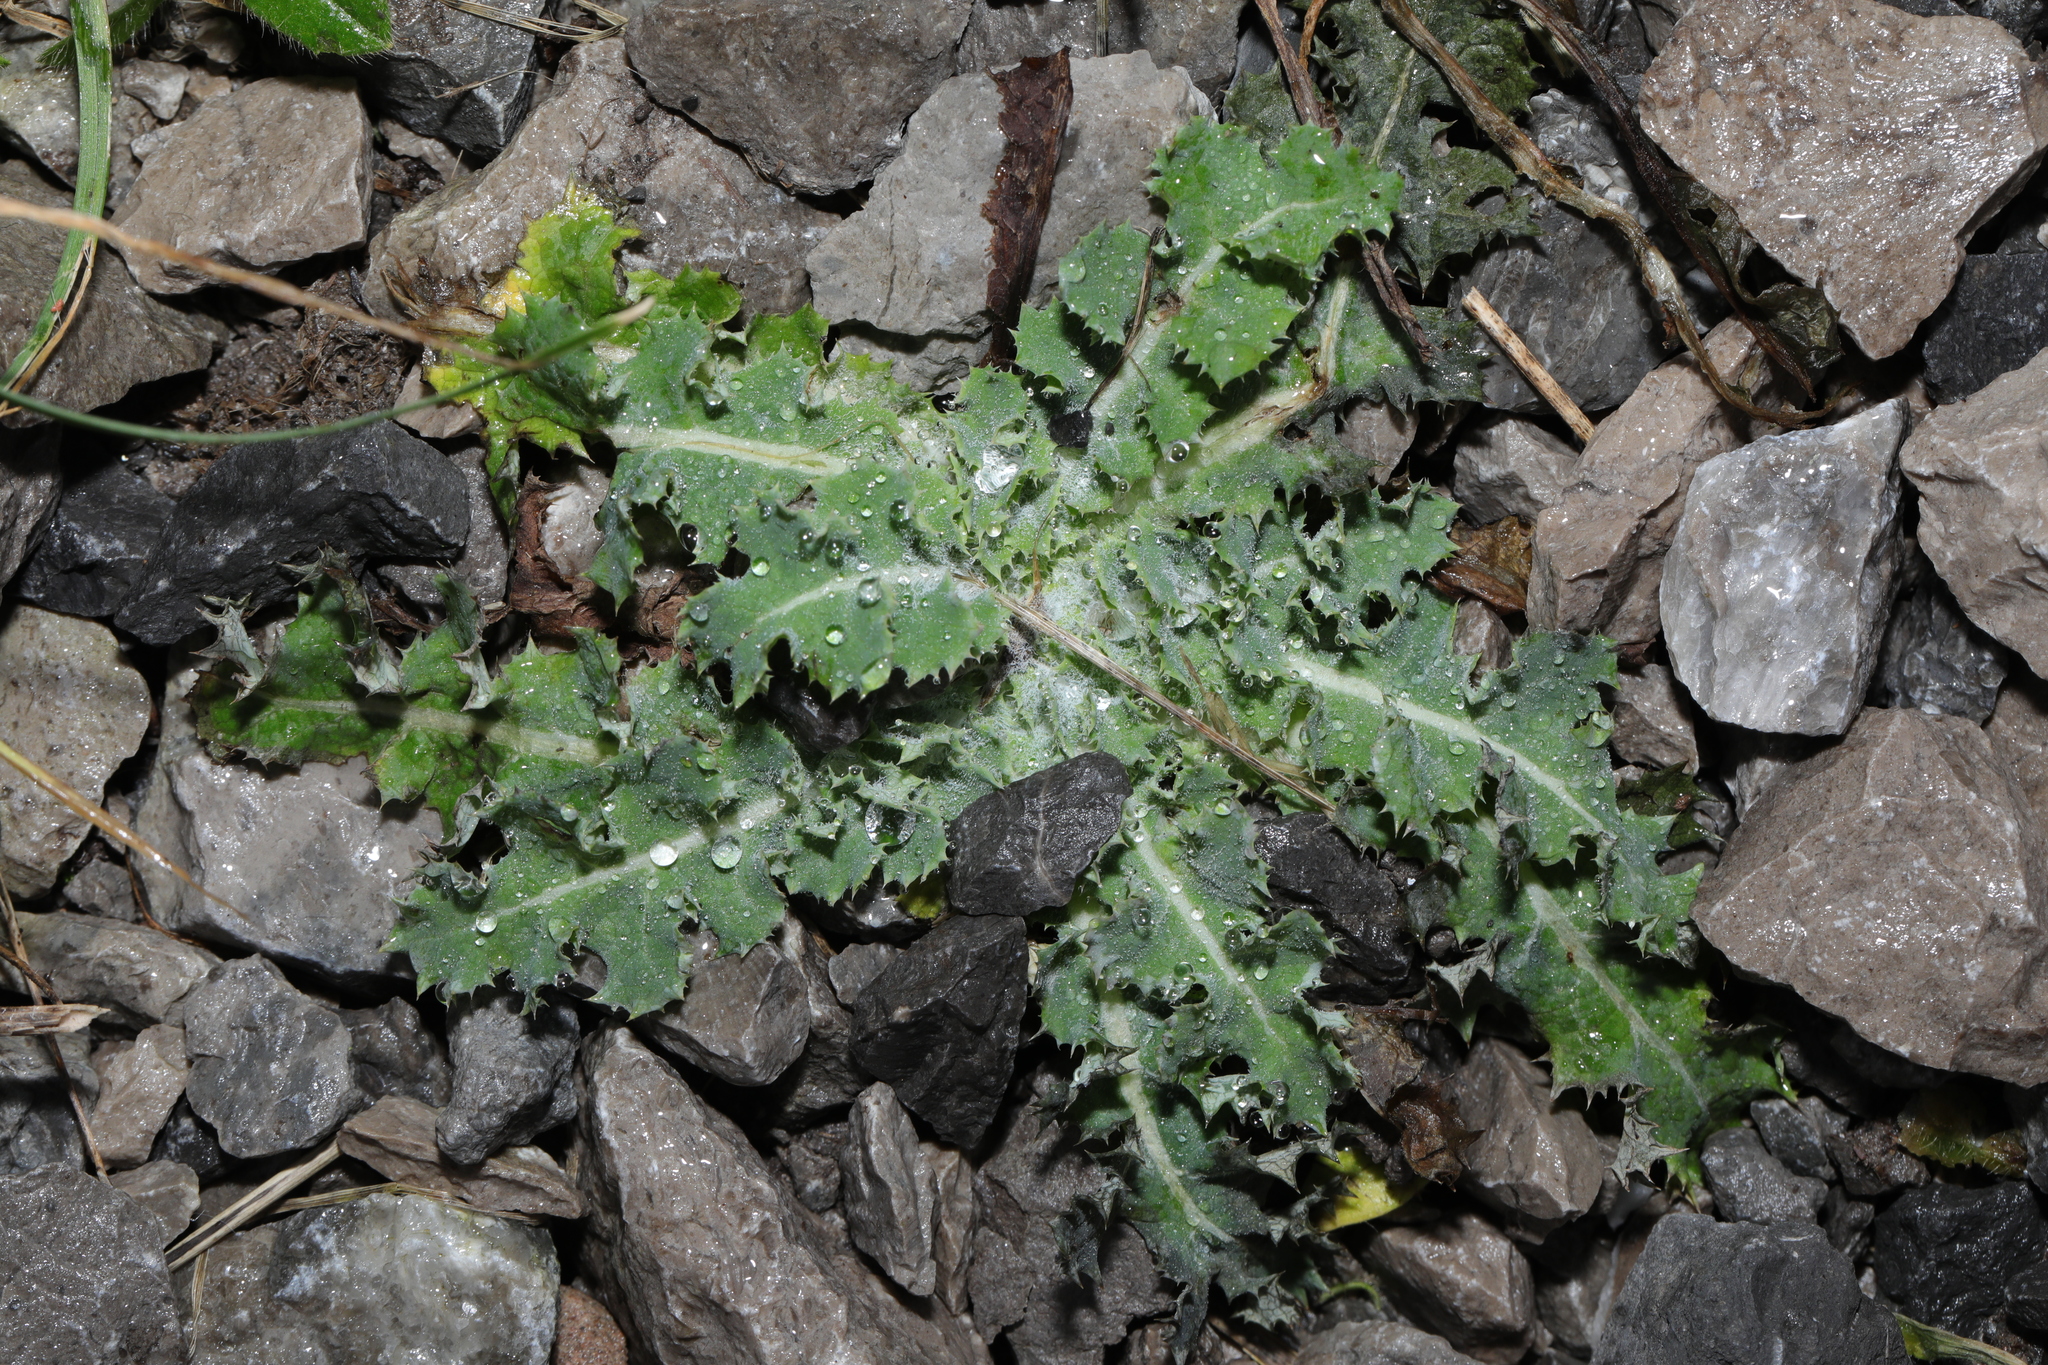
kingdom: Plantae
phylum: Tracheophyta
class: Magnoliopsida
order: Asterales
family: Asteraceae
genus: Sonchus
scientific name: Sonchus asper
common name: Prickly sow-thistle
